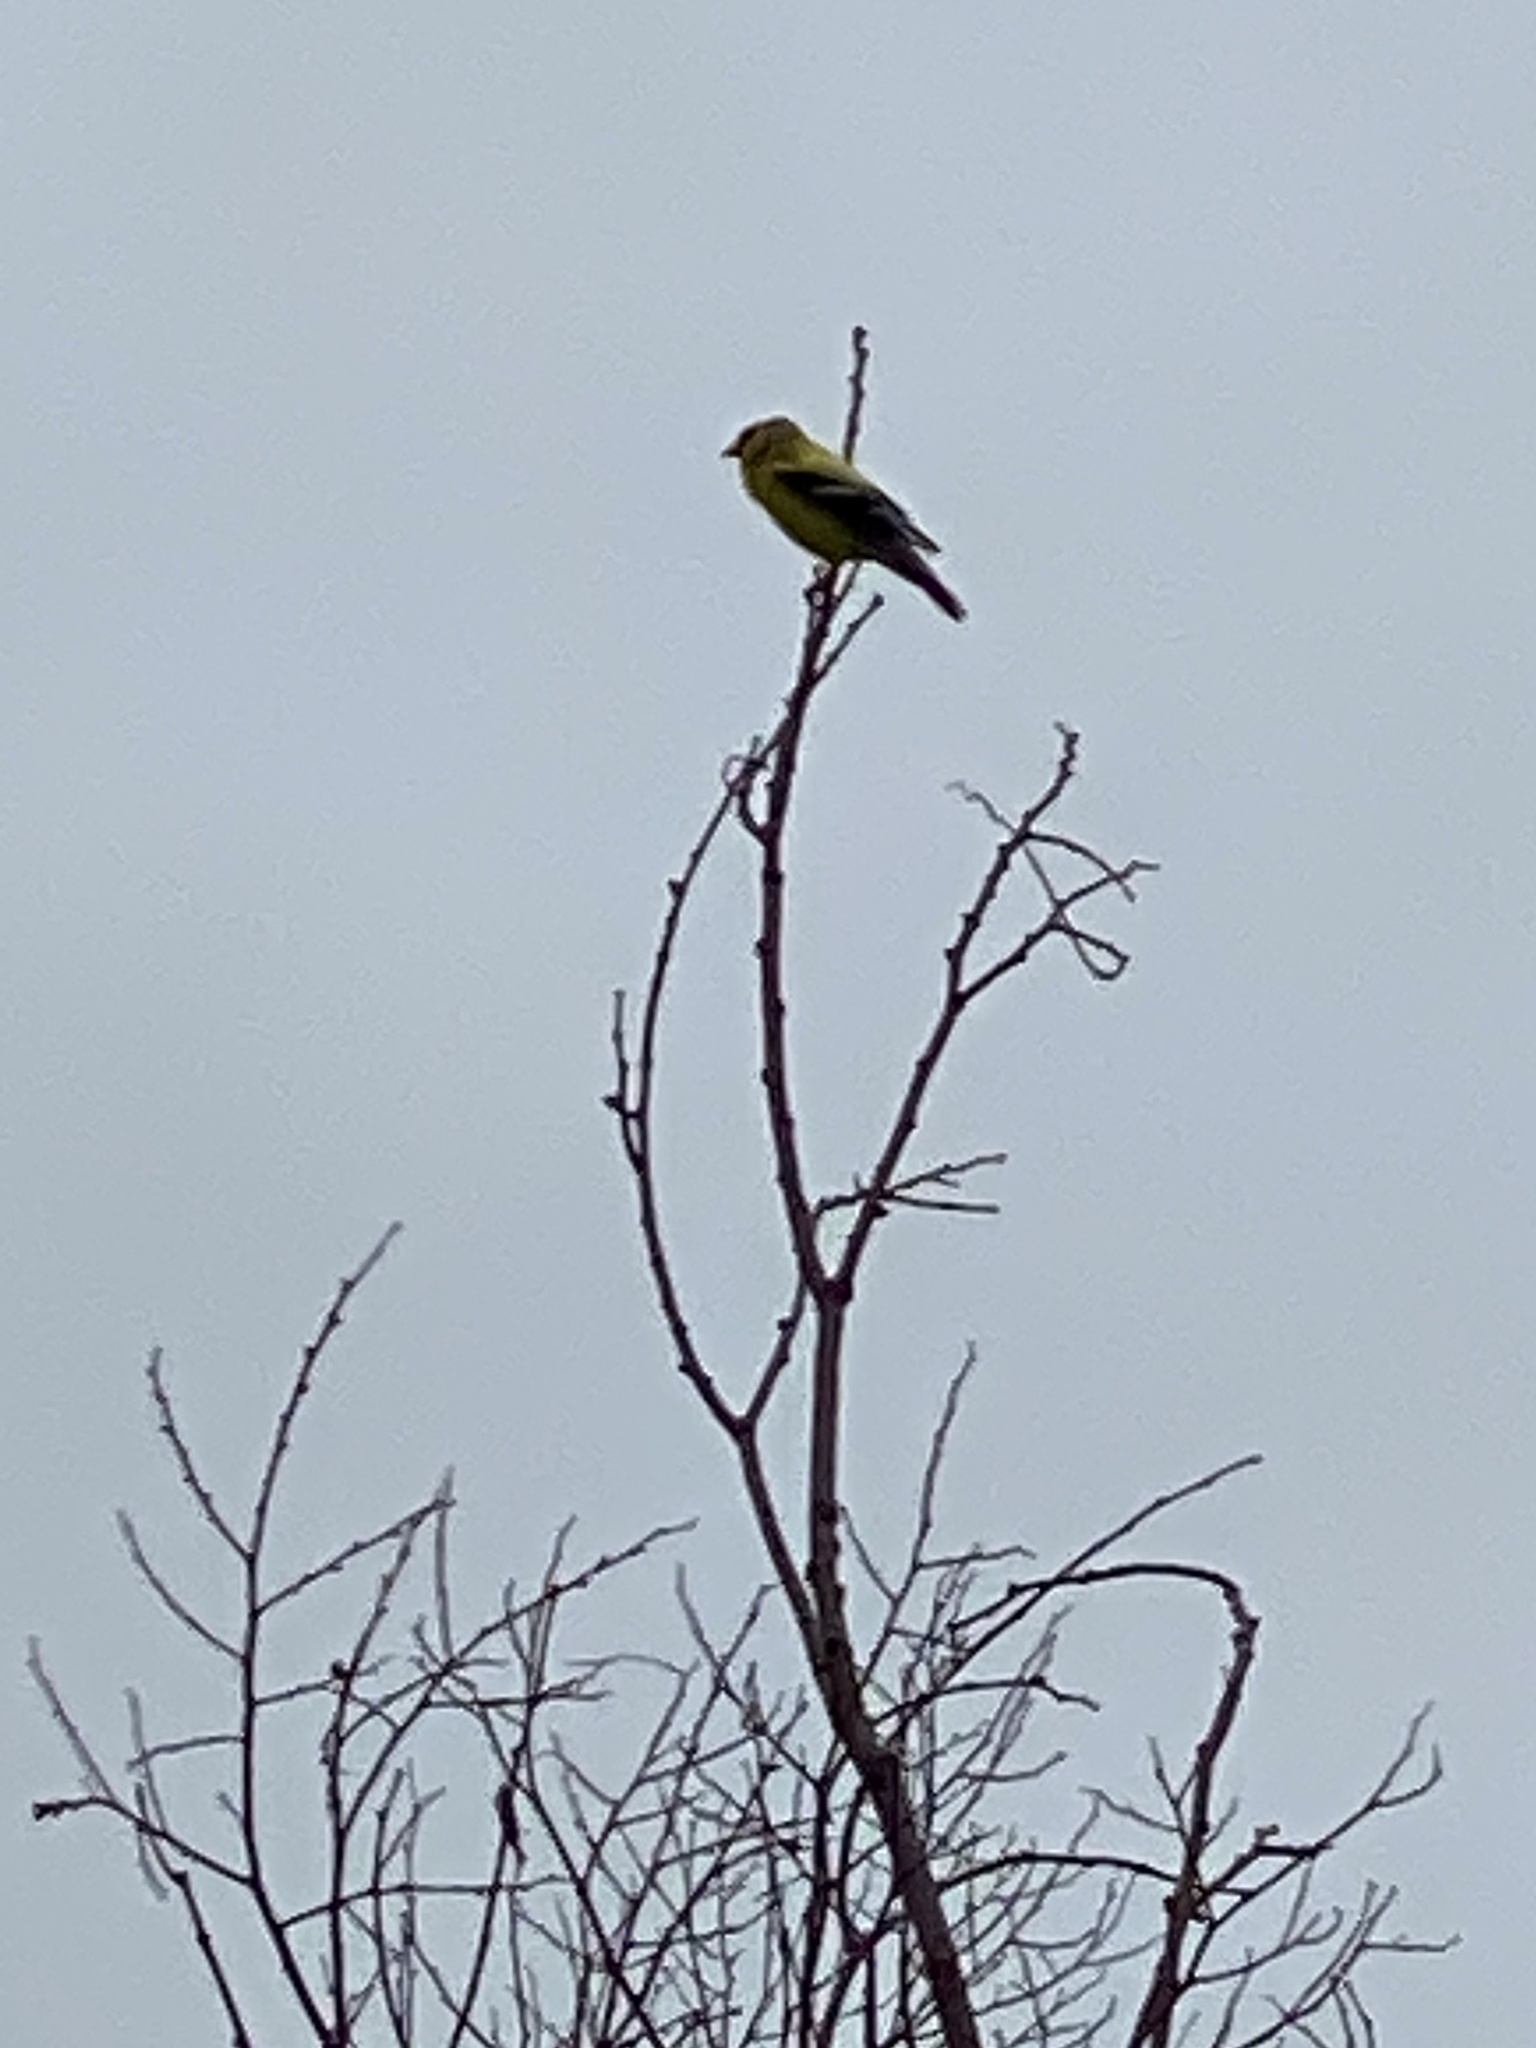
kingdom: Animalia
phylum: Chordata
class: Aves
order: Passeriformes
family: Fringillidae
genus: Spinus
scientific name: Spinus tristis
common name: American goldfinch
